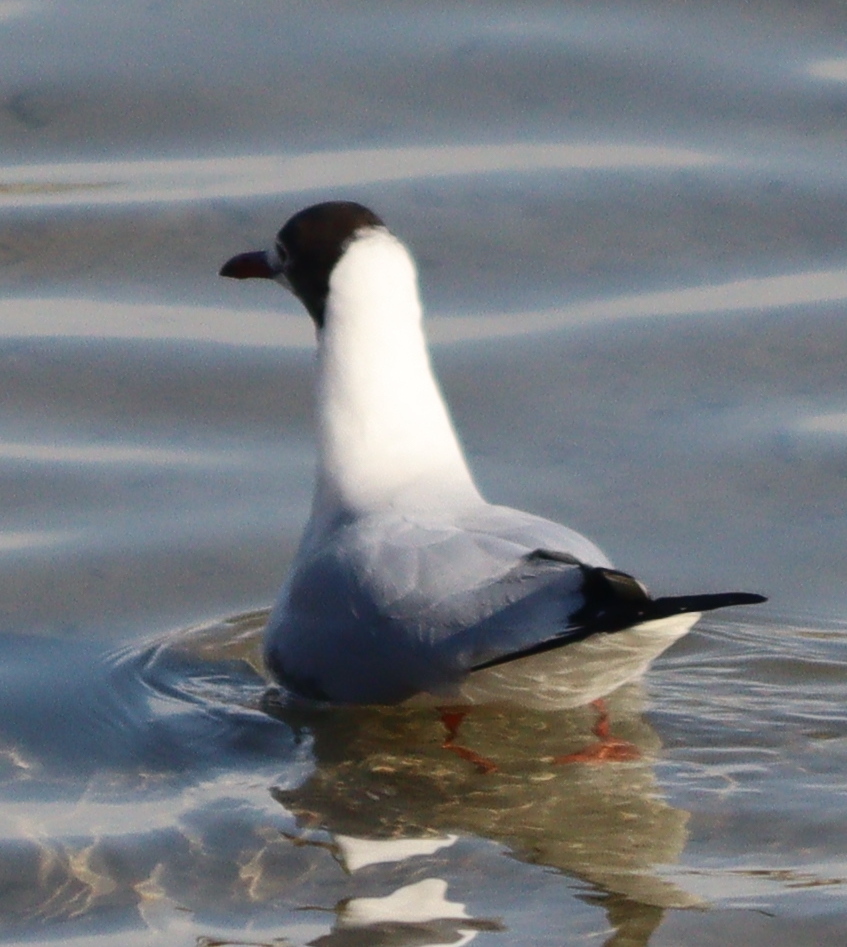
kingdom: Animalia
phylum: Chordata
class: Aves
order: Charadriiformes
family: Laridae
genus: Chroicocephalus
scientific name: Chroicocephalus ridibundus
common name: Black-headed gull
